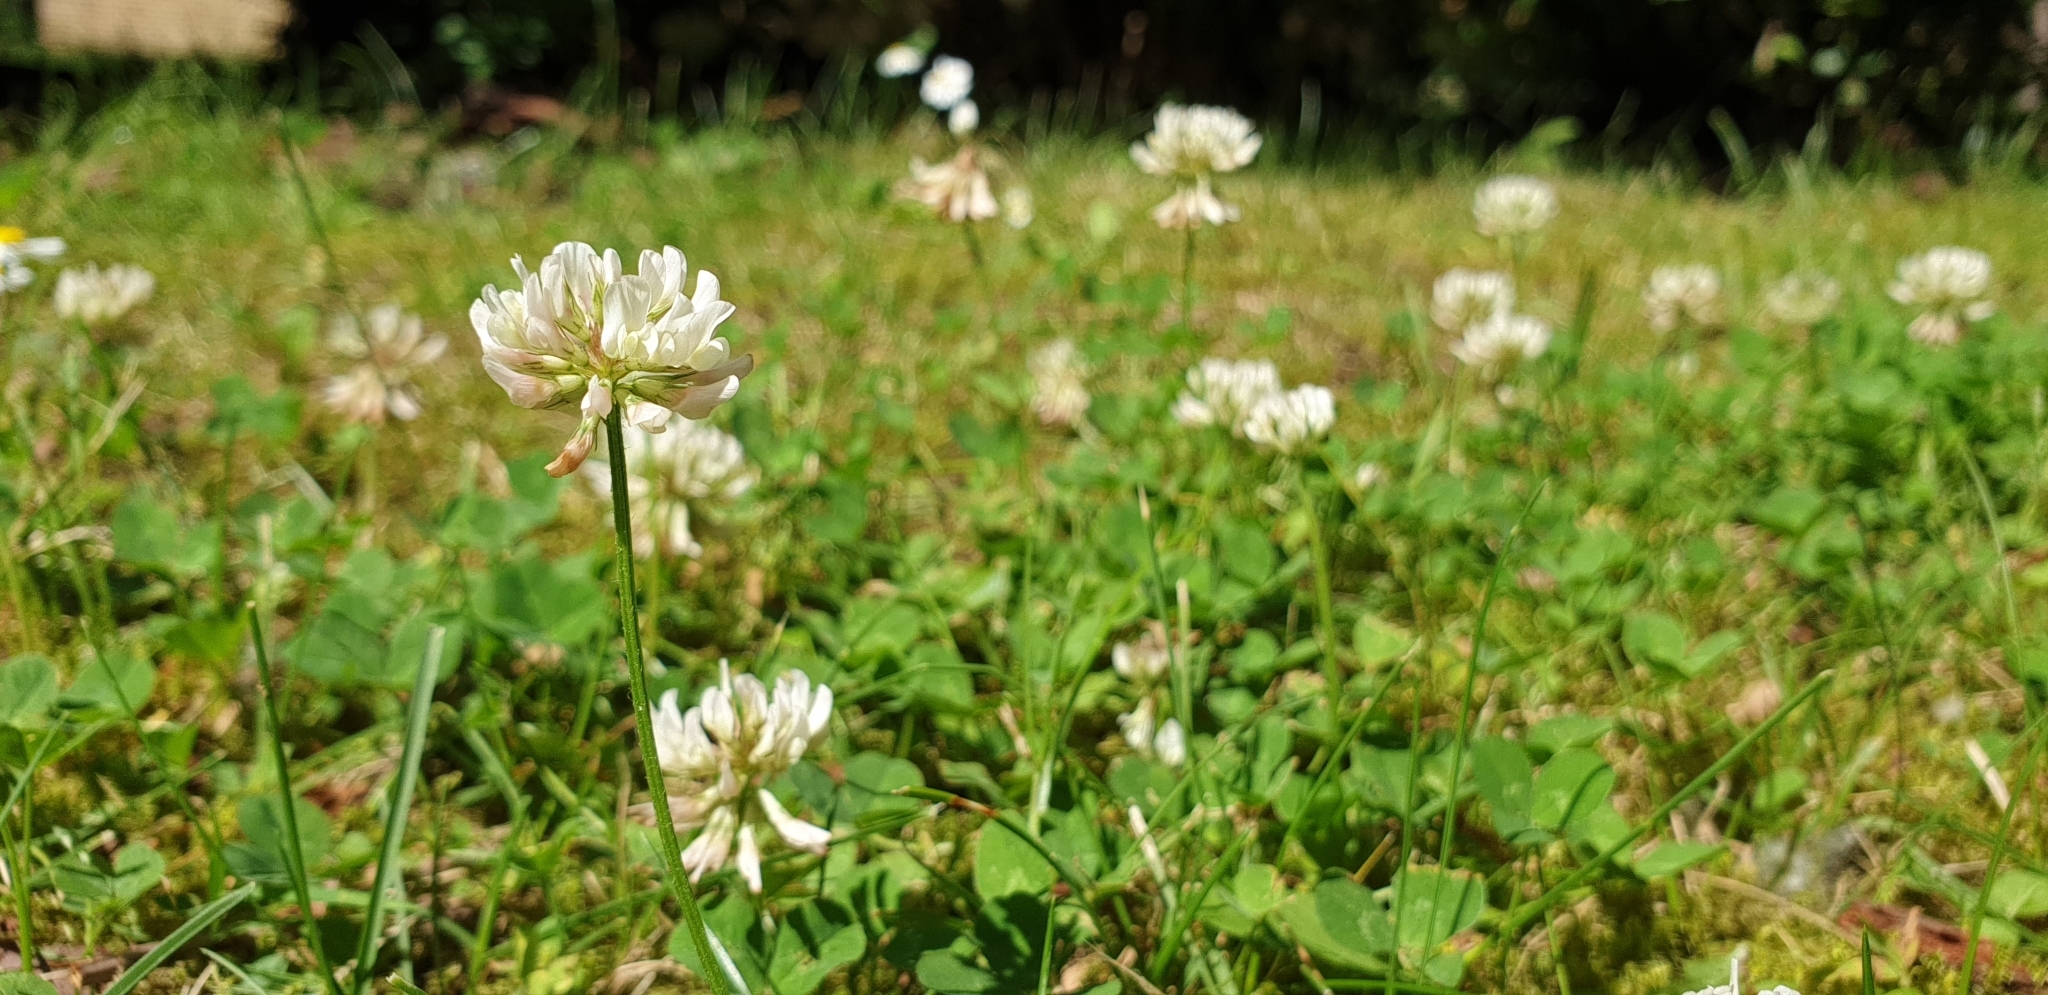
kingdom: Plantae
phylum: Tracheophyta
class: Magnoliopsida
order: Fabales
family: Fabaceae
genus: Trifolium
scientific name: Trifolium repens
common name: White clover
